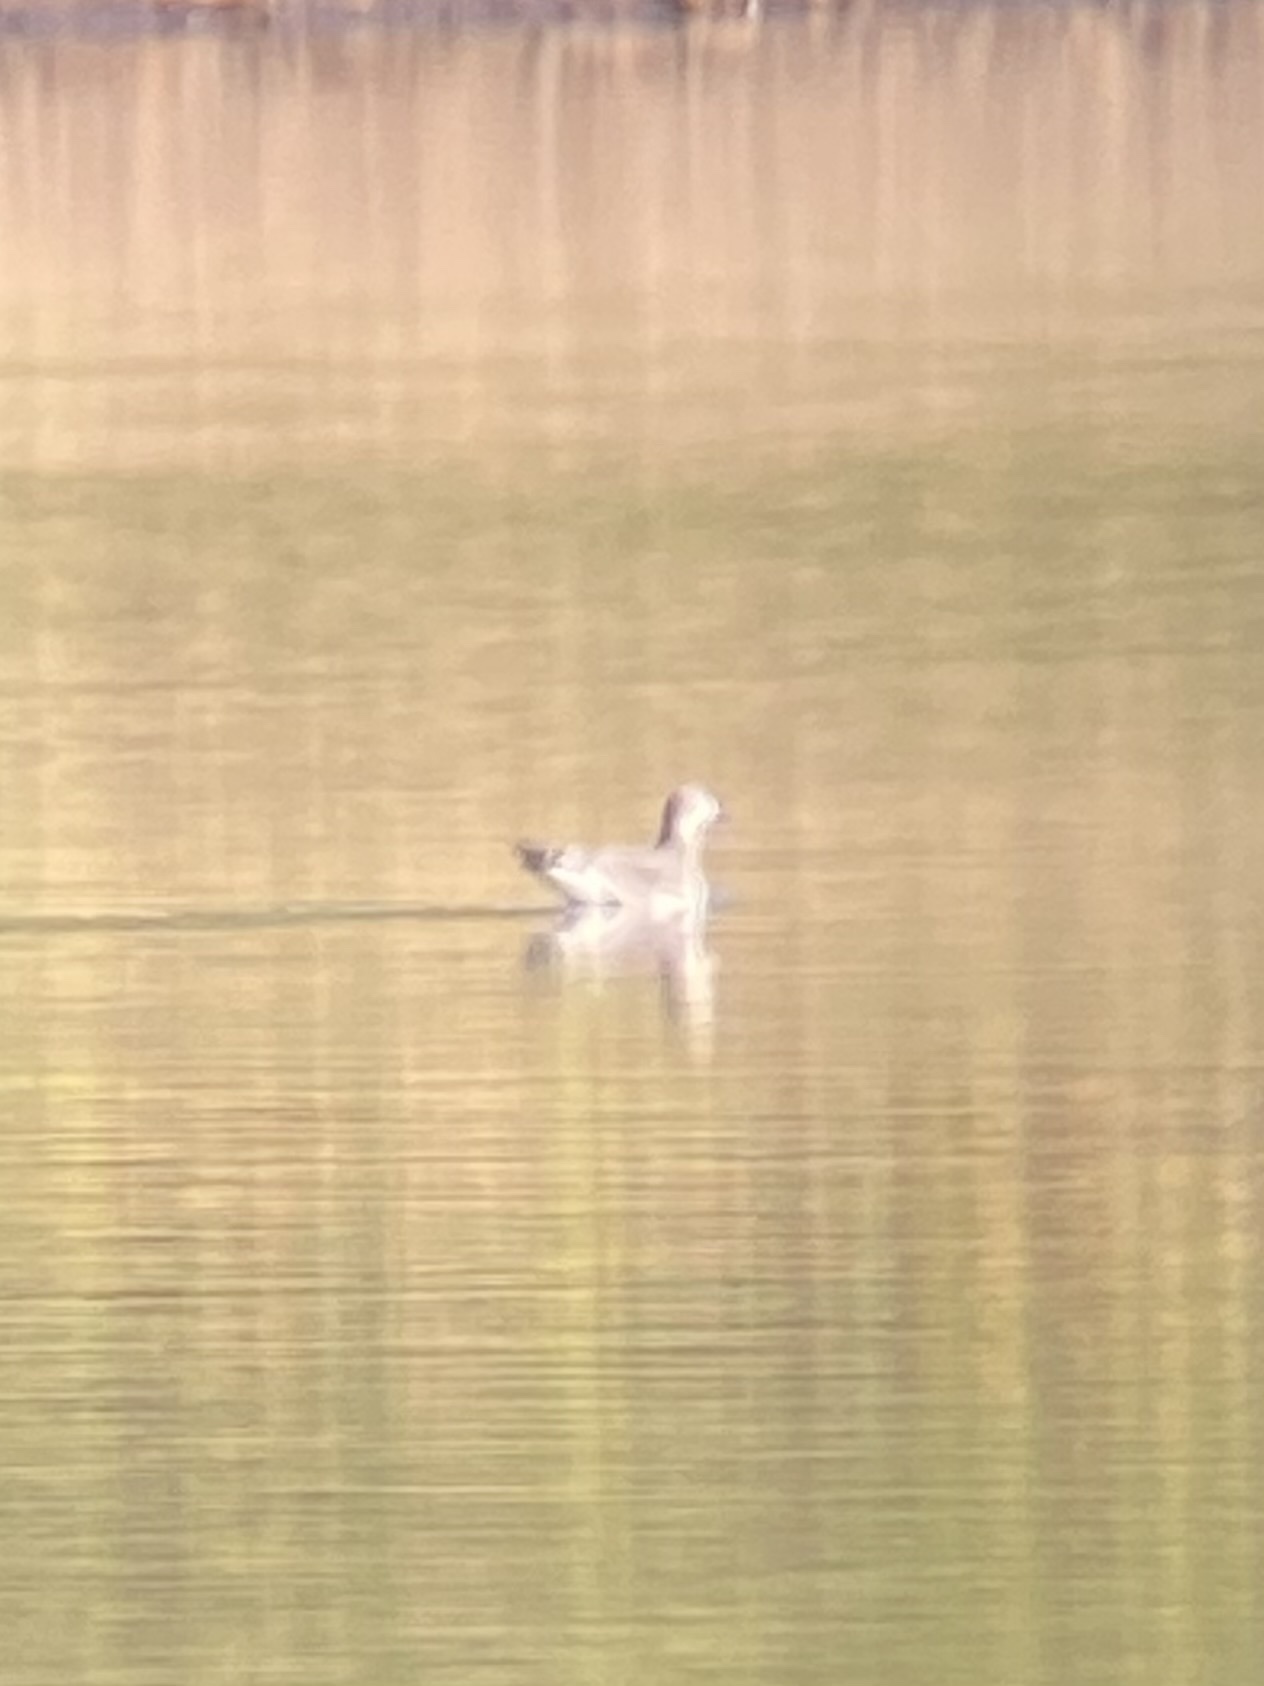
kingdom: Animalia
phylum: Chordata
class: Aves
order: Charadriiformes
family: Laridae
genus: Xema
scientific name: Xema sabini
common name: Sabine's gull
